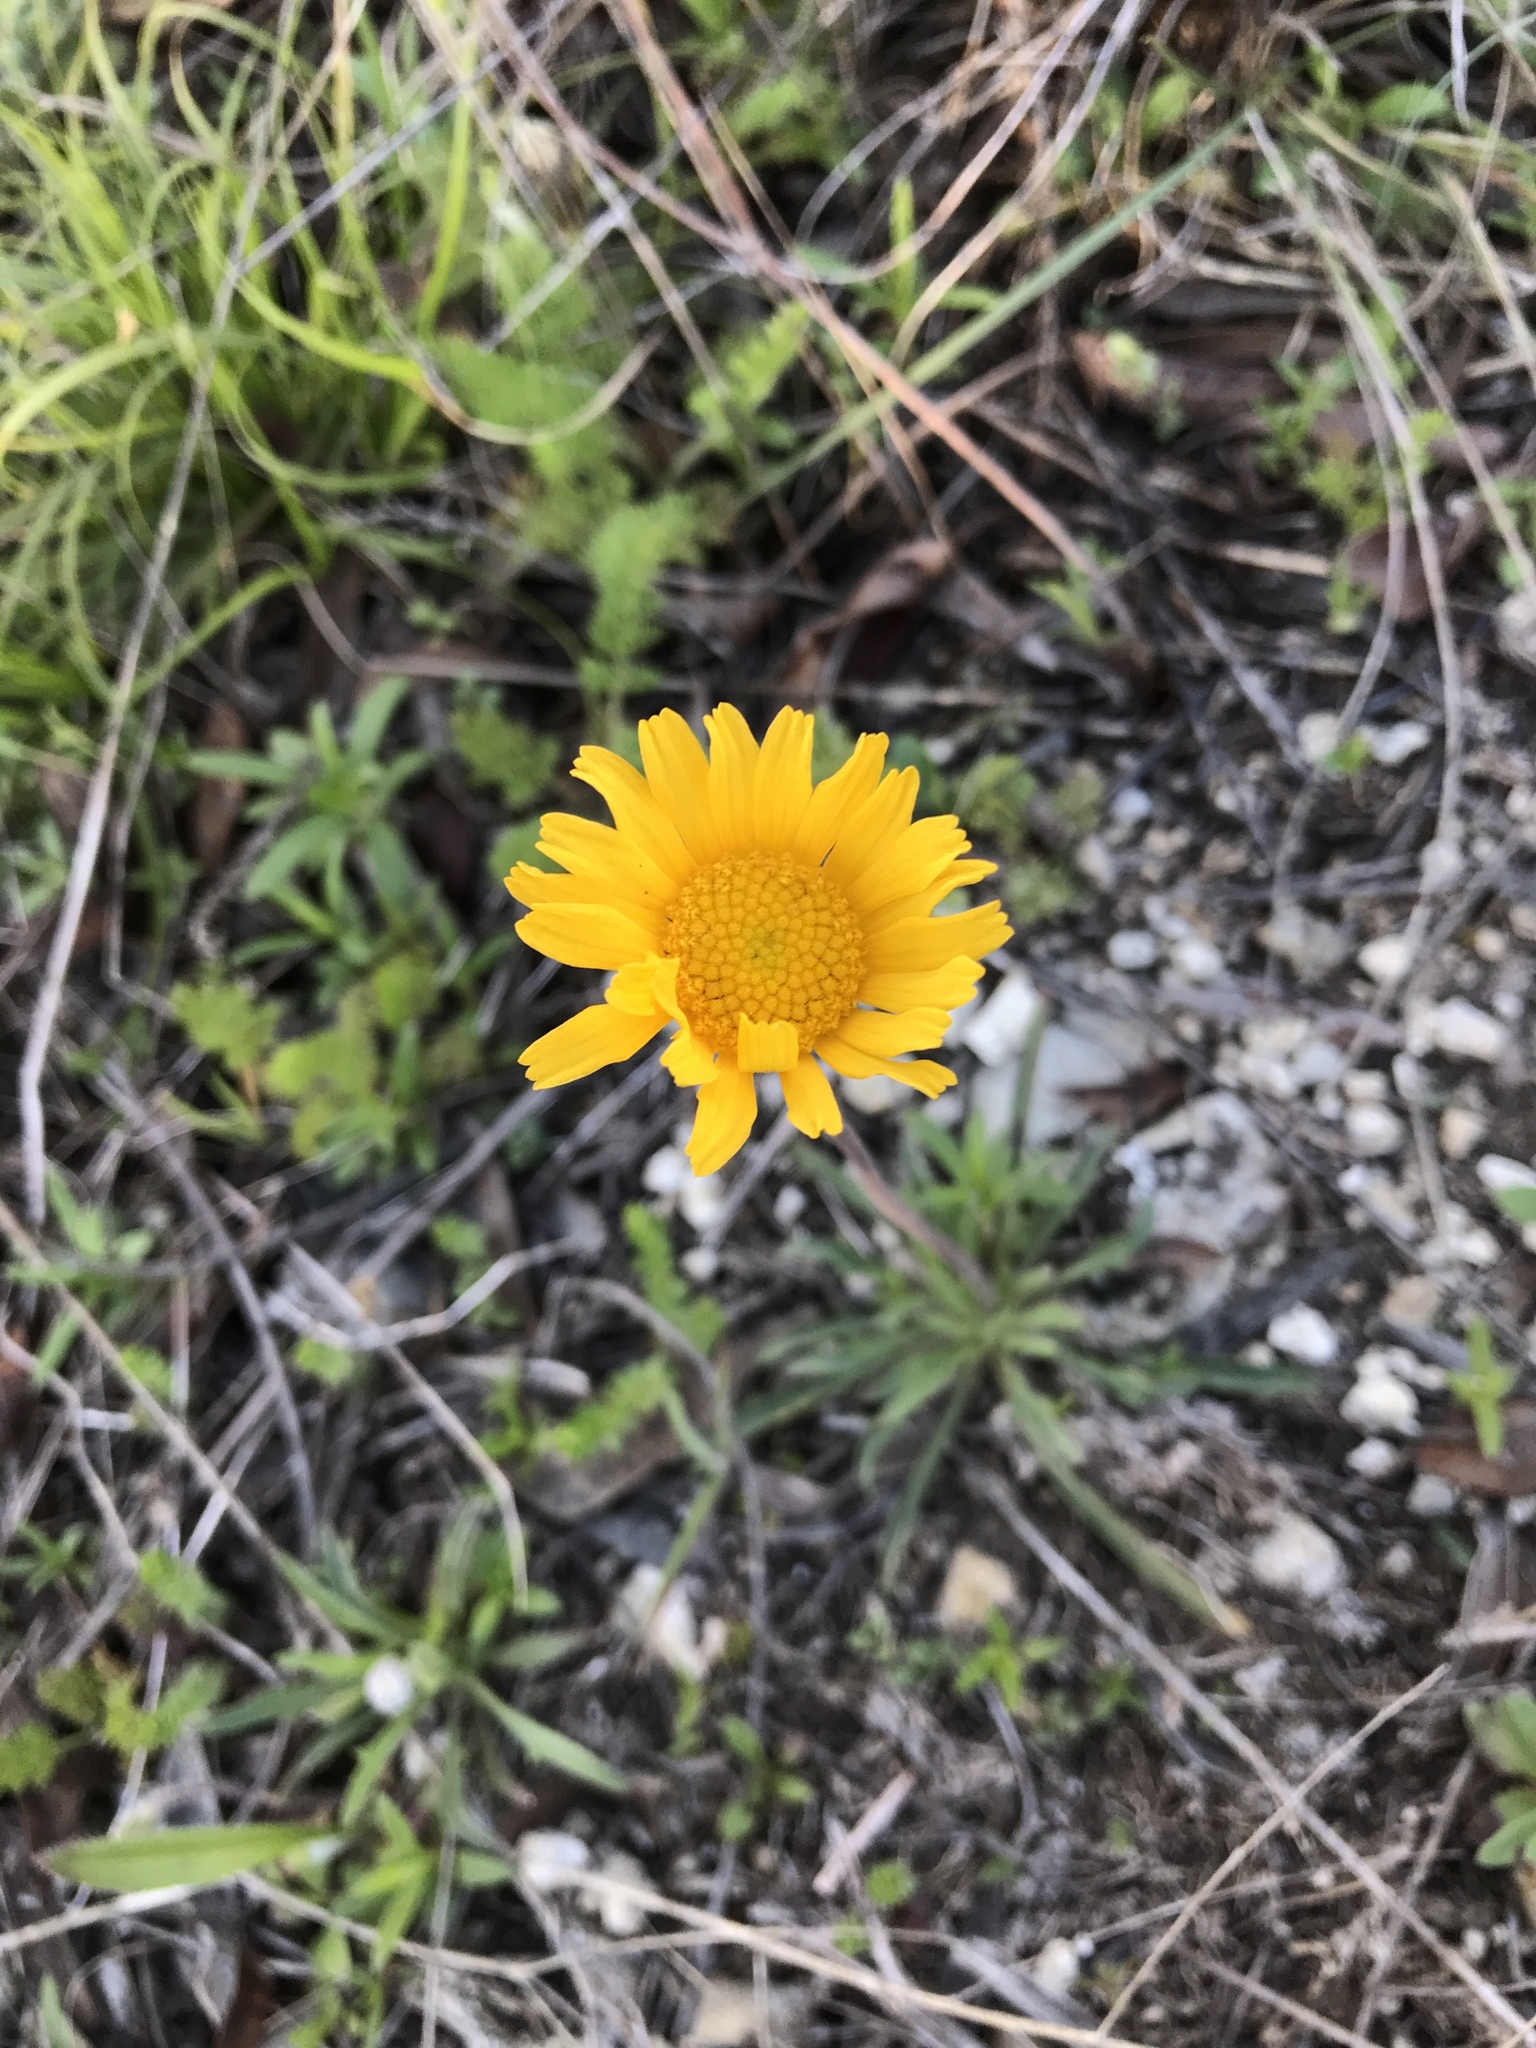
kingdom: Plantae
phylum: Tracheophyta
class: Magnoliopsida
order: Asterales
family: Asteraceae
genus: Tetraneuris
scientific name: Tetraneuris scaposa
